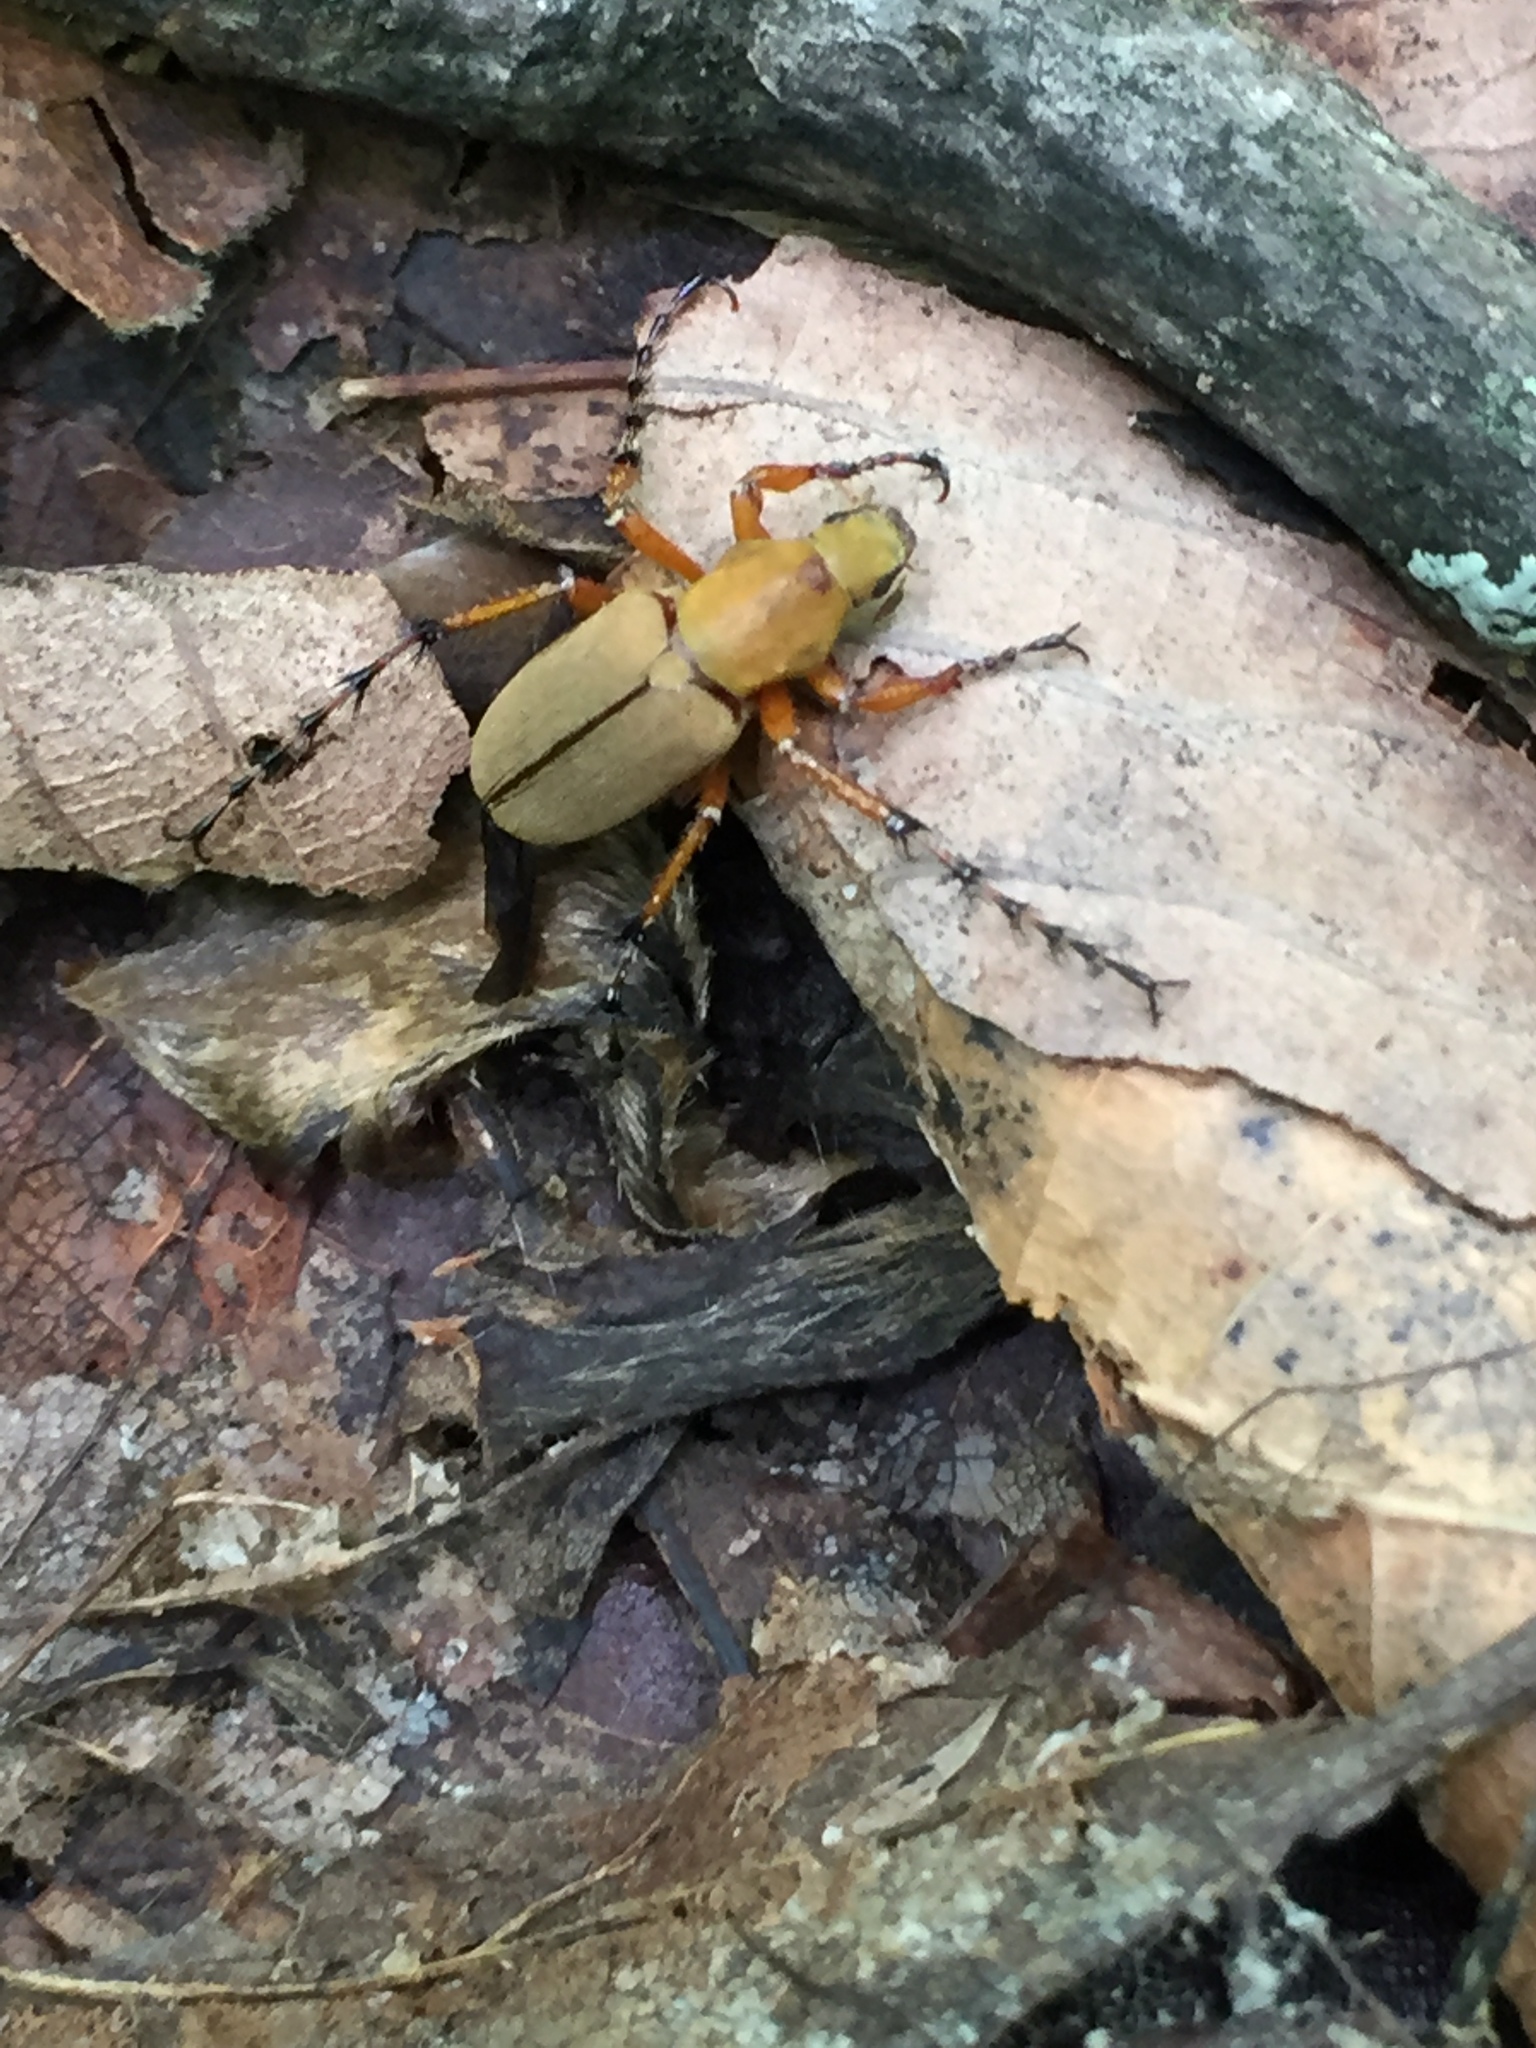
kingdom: Animalia
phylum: Arthropoda
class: Insecta
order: Coleoptera
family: Scarabaeidae
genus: Macrodactylus
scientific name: Macrodactylus subspinosus
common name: American rose chafer
